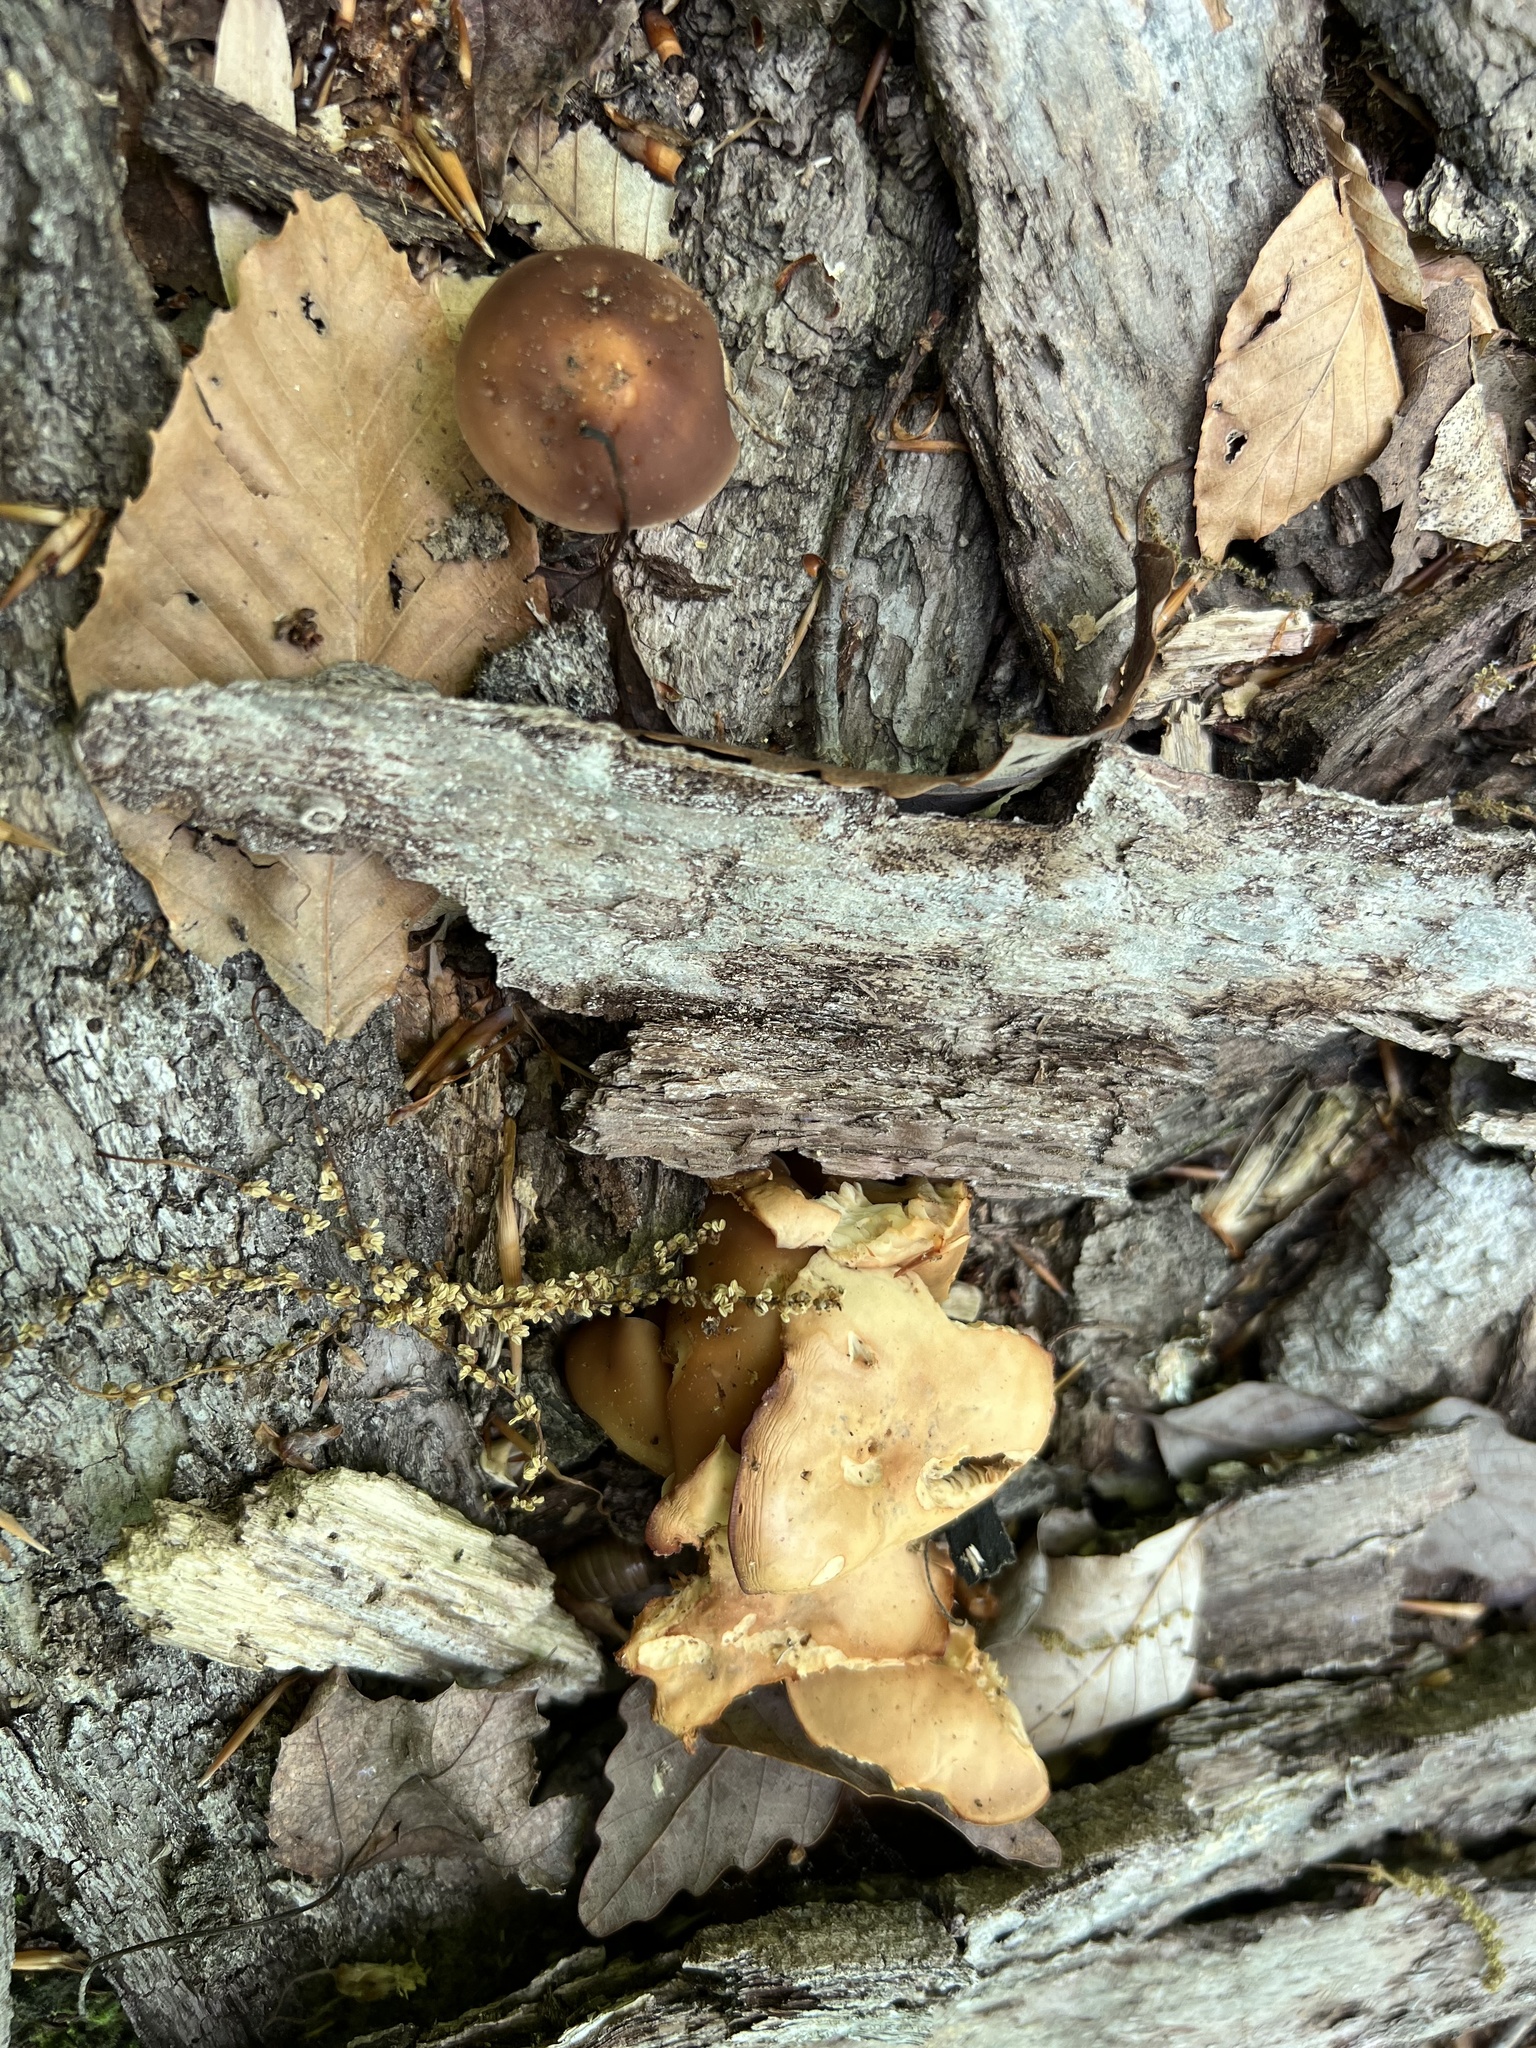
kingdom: Fungi
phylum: Basidiomycota
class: Agaricomycetes
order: Agaricales
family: Omphalotaceae
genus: Gymnopus
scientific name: Gymnopus dryophilus
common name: Penny top
